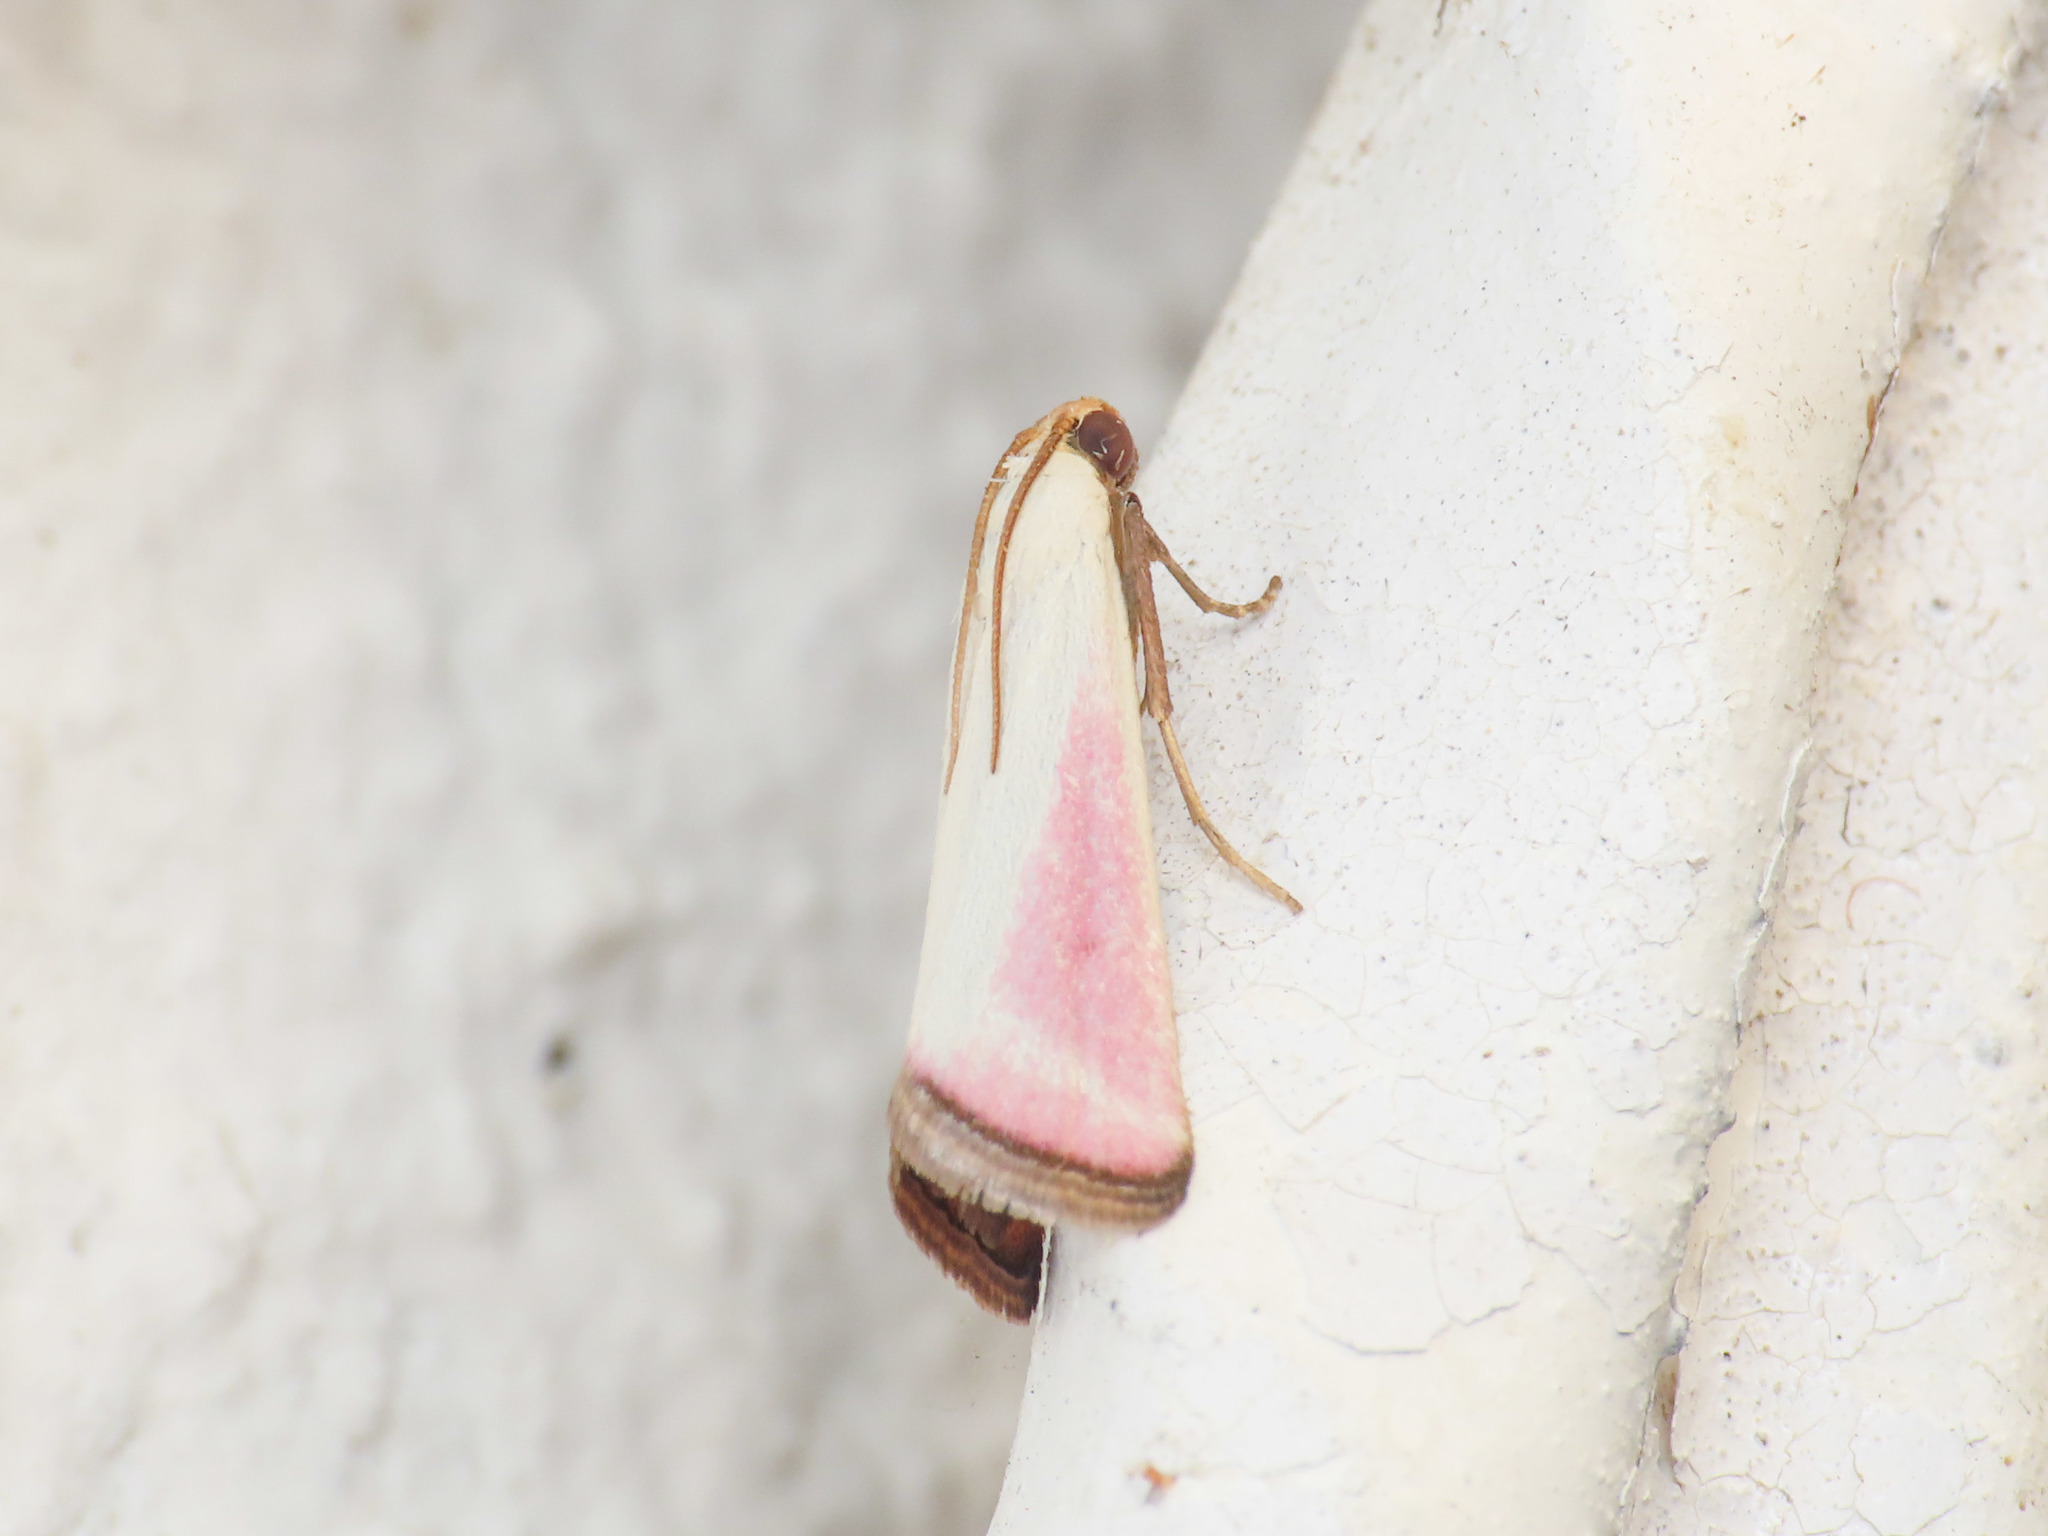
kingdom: Animalia
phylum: Arthropoda
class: Insecta
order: Lepidoptera
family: Pyralidae
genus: Eurhodope
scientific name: Eurhodope rosella
